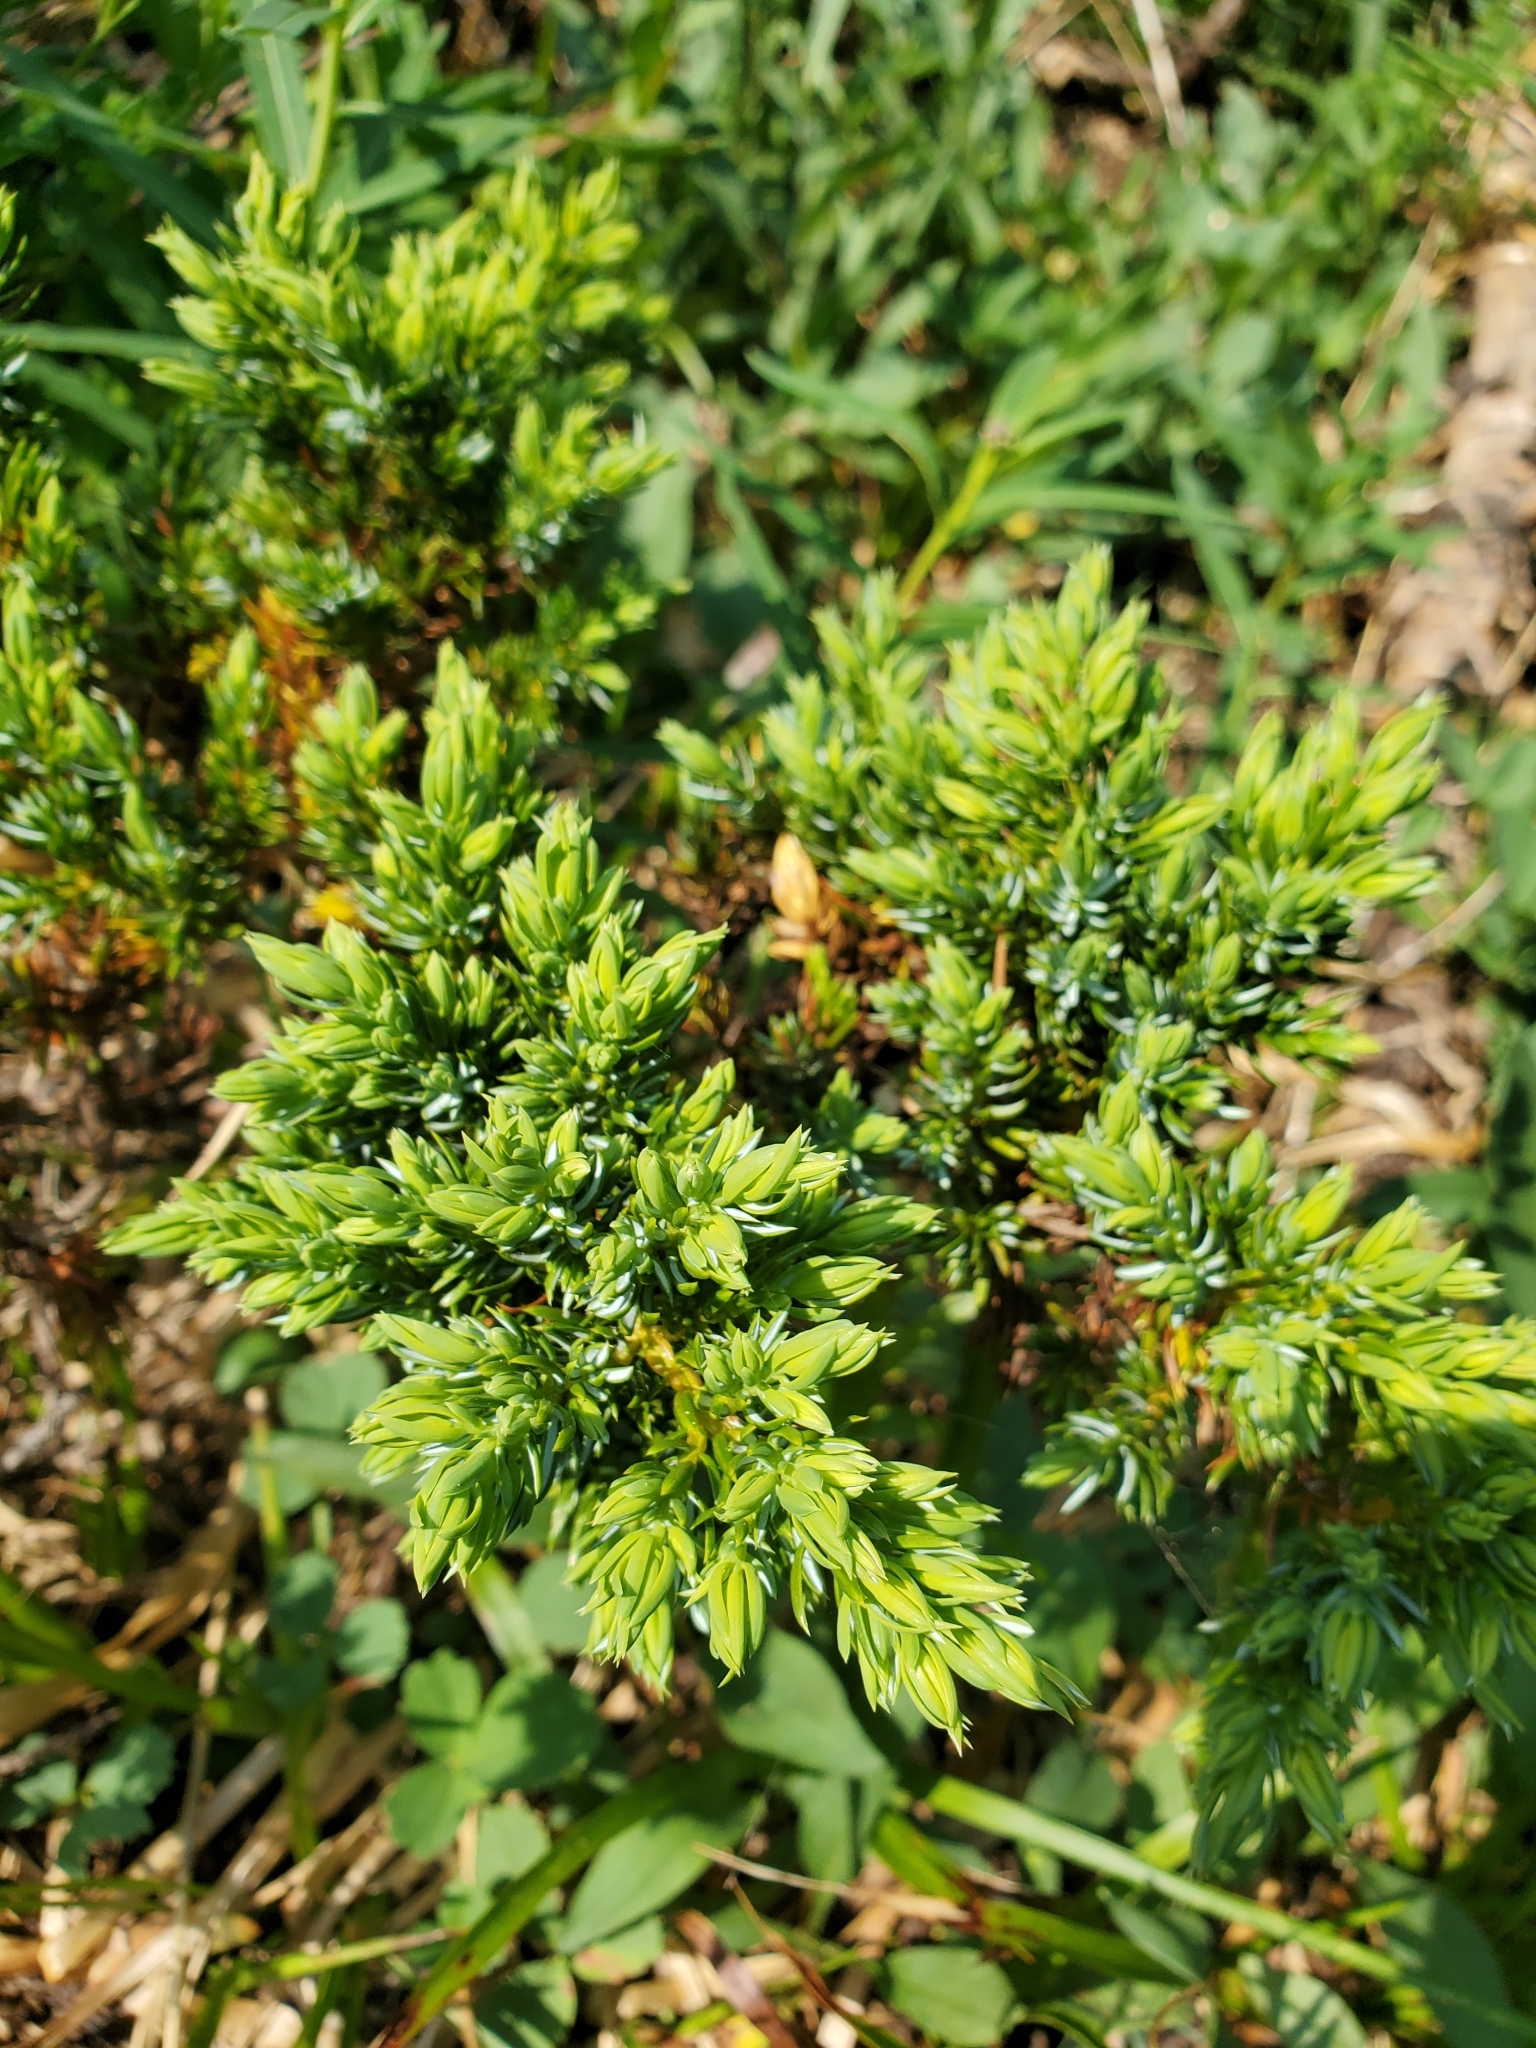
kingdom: Plantae
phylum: Tracheophyta
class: Pinopsida
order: Pinales
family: Cupressaceae
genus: Juniperus
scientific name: Juniperus communis
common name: Common juniper
